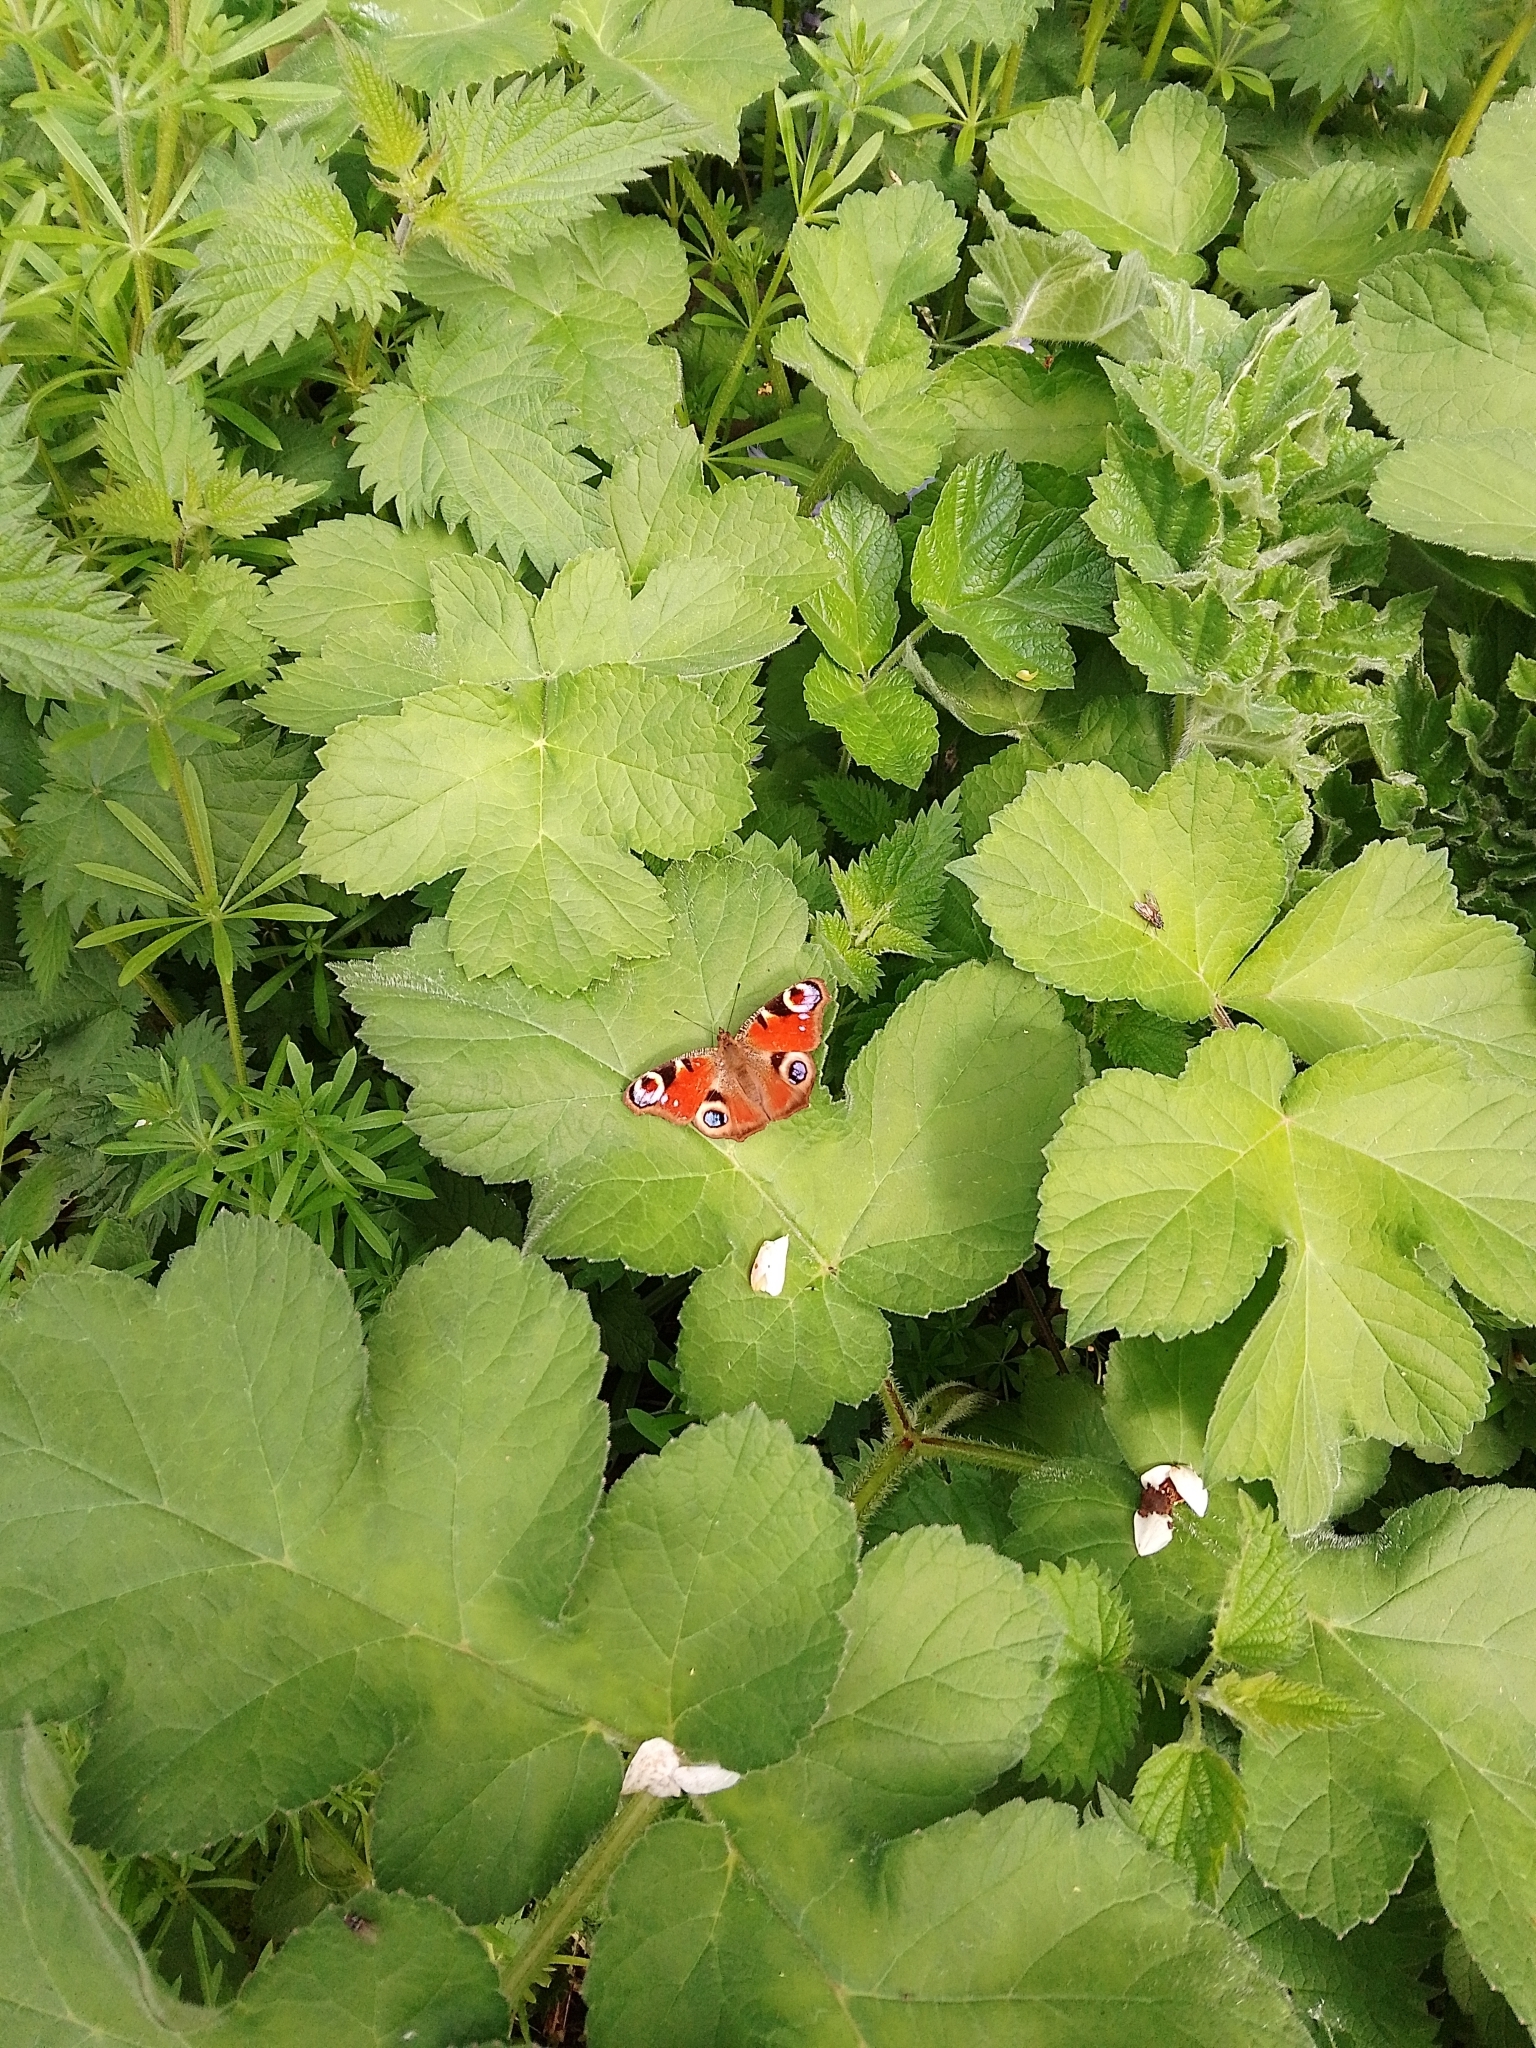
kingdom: Animalia
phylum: Arthropoda
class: Insecta
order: Lepidoptera
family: Nymphalidae
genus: Aglais
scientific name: Aglais io
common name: Peacock
